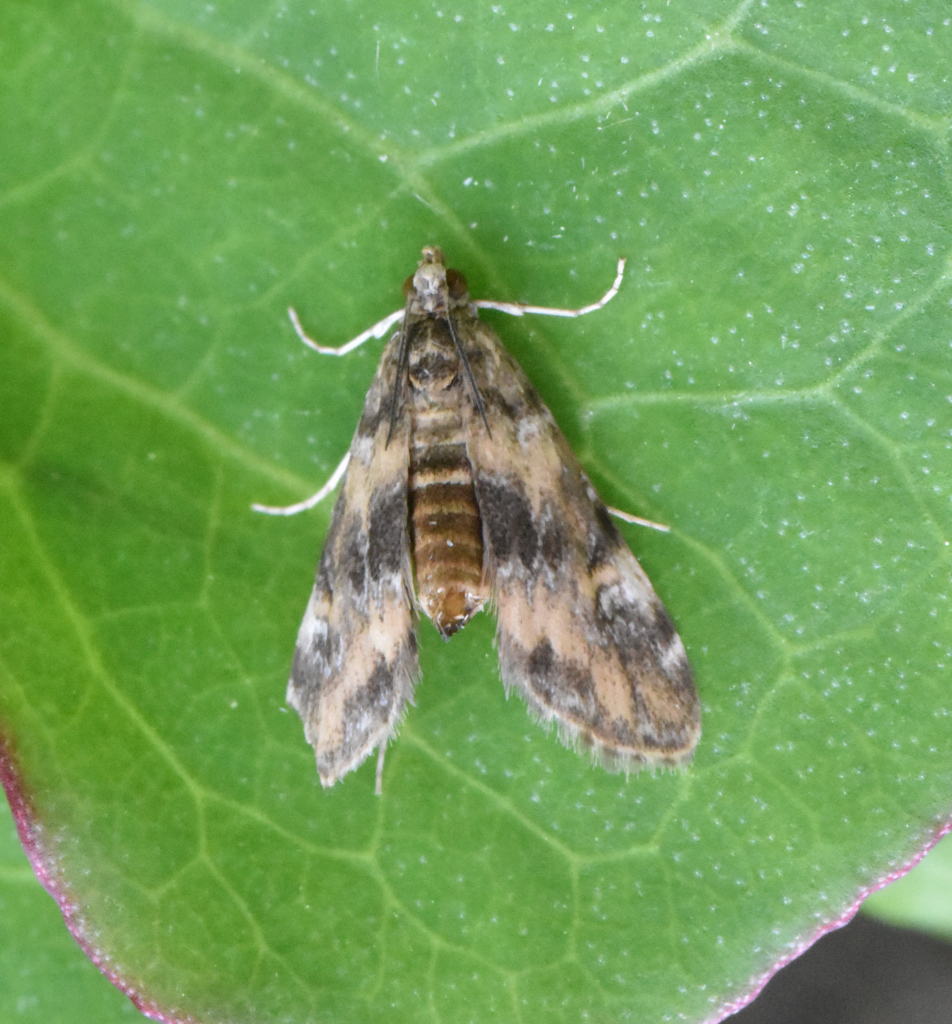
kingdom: Animalia
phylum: Arthropoda
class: Insecta
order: Lepidoptera
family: Crambidae
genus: Elophila
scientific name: Elophila obliteralis
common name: Waterlily leafcutter moth
